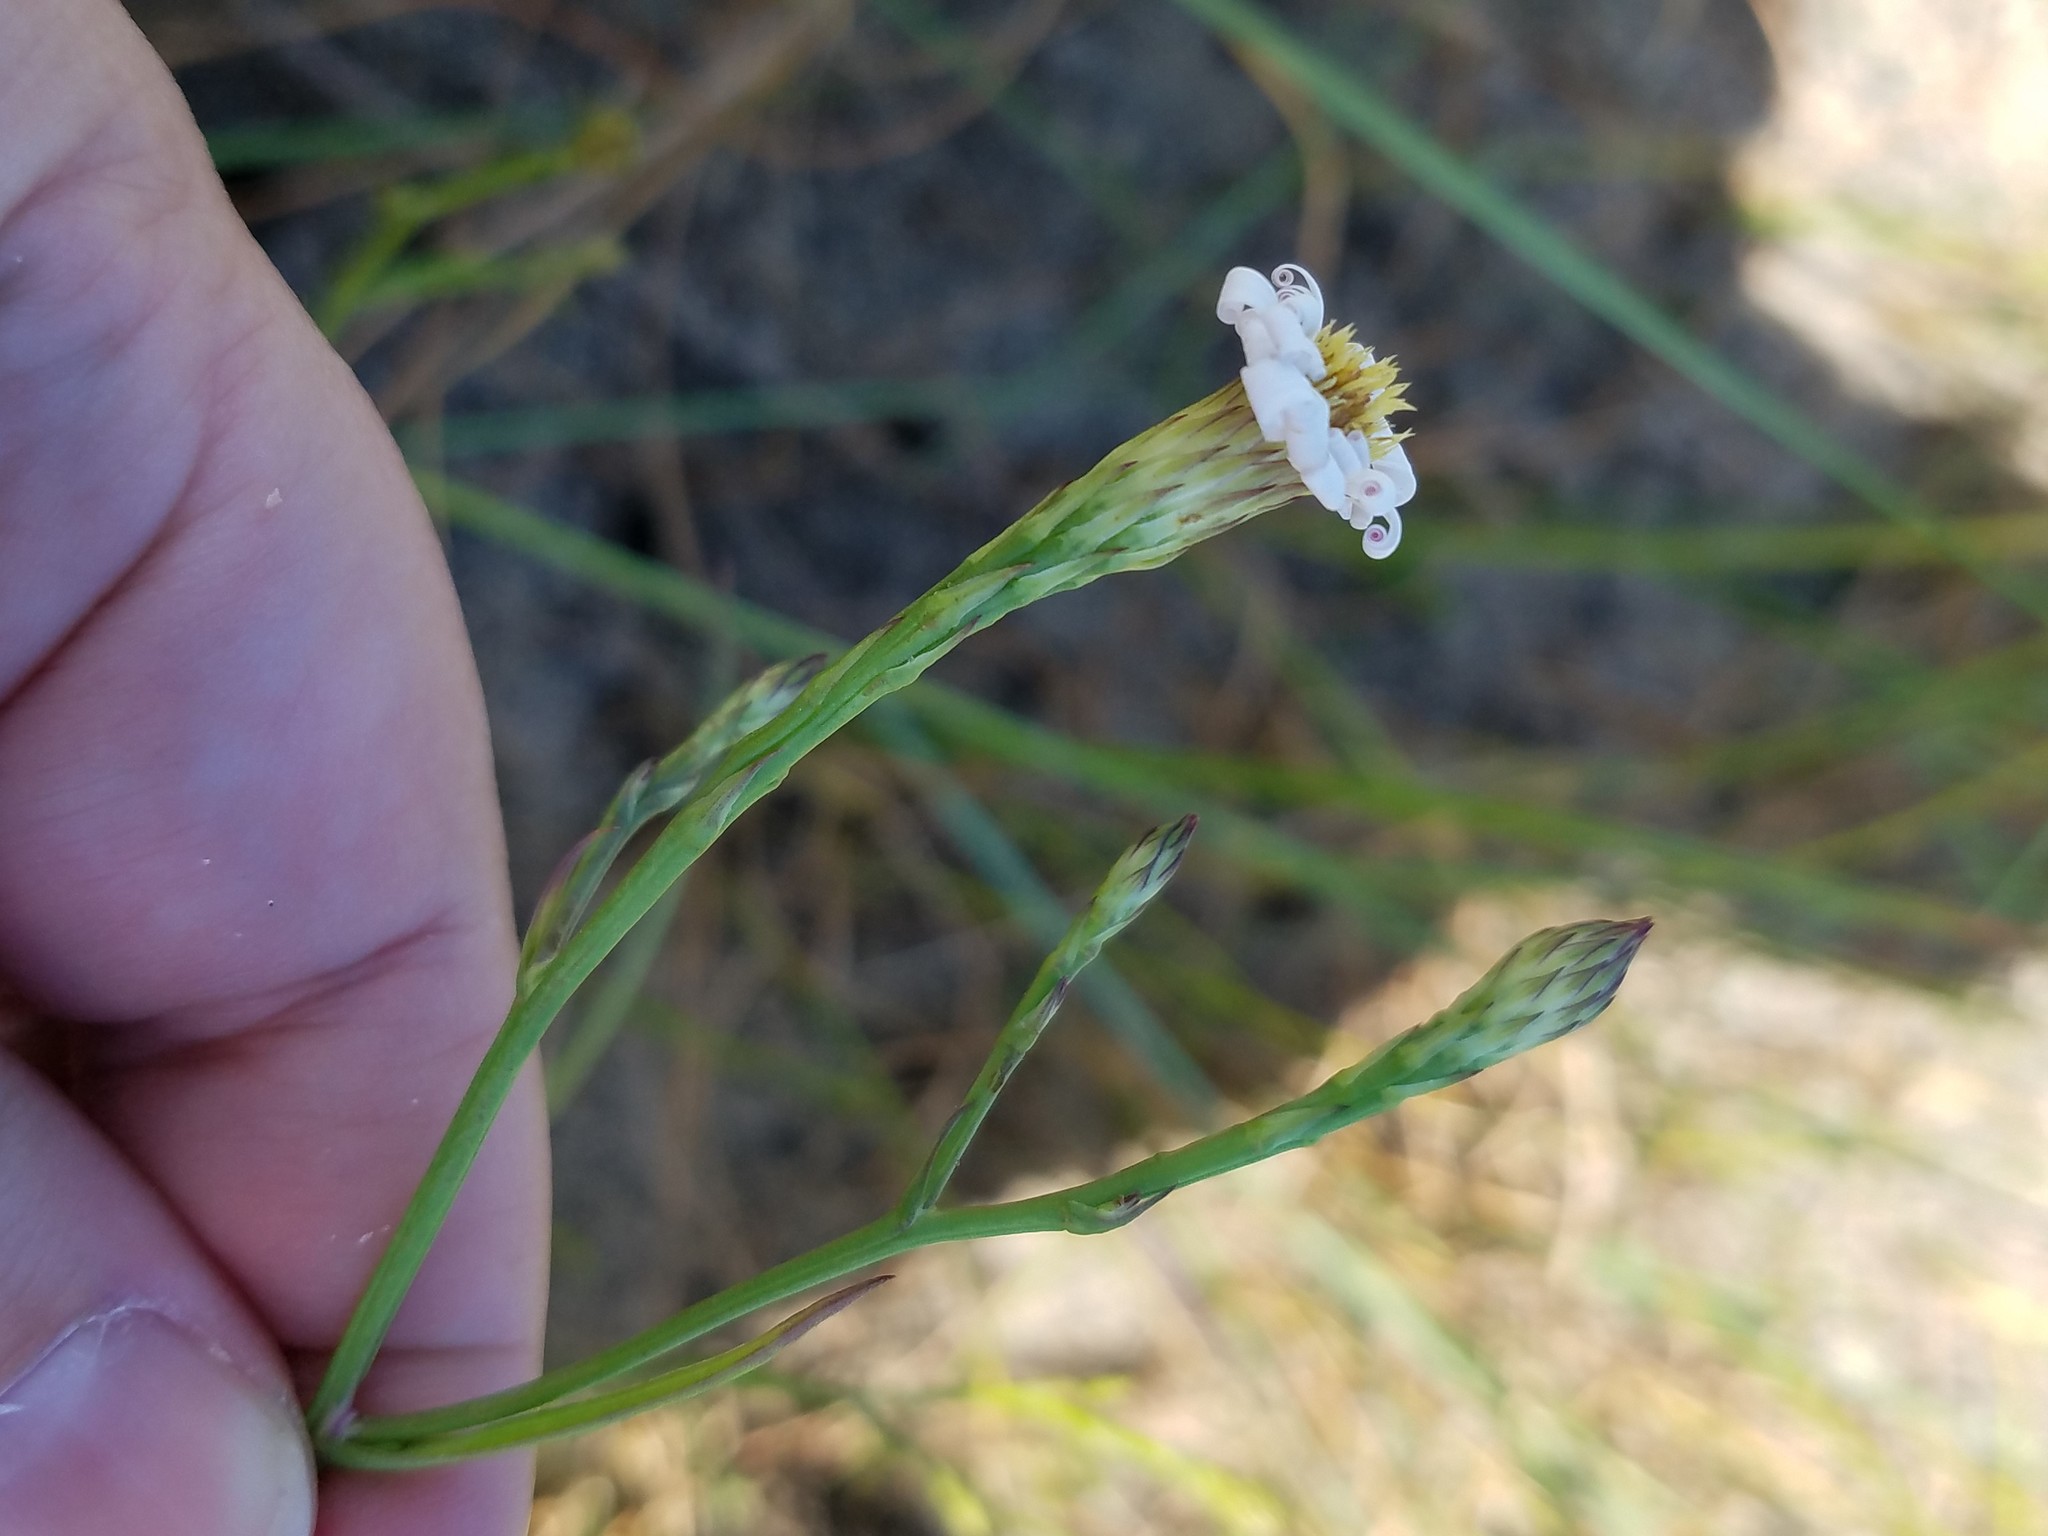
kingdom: Plantae
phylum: Tracheophyta
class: Magnoliopsida
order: Asterales
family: Asteraceae
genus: Symphyotrichum
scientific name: Symphyotrichum subulatum
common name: Annual saltmarsh aster
